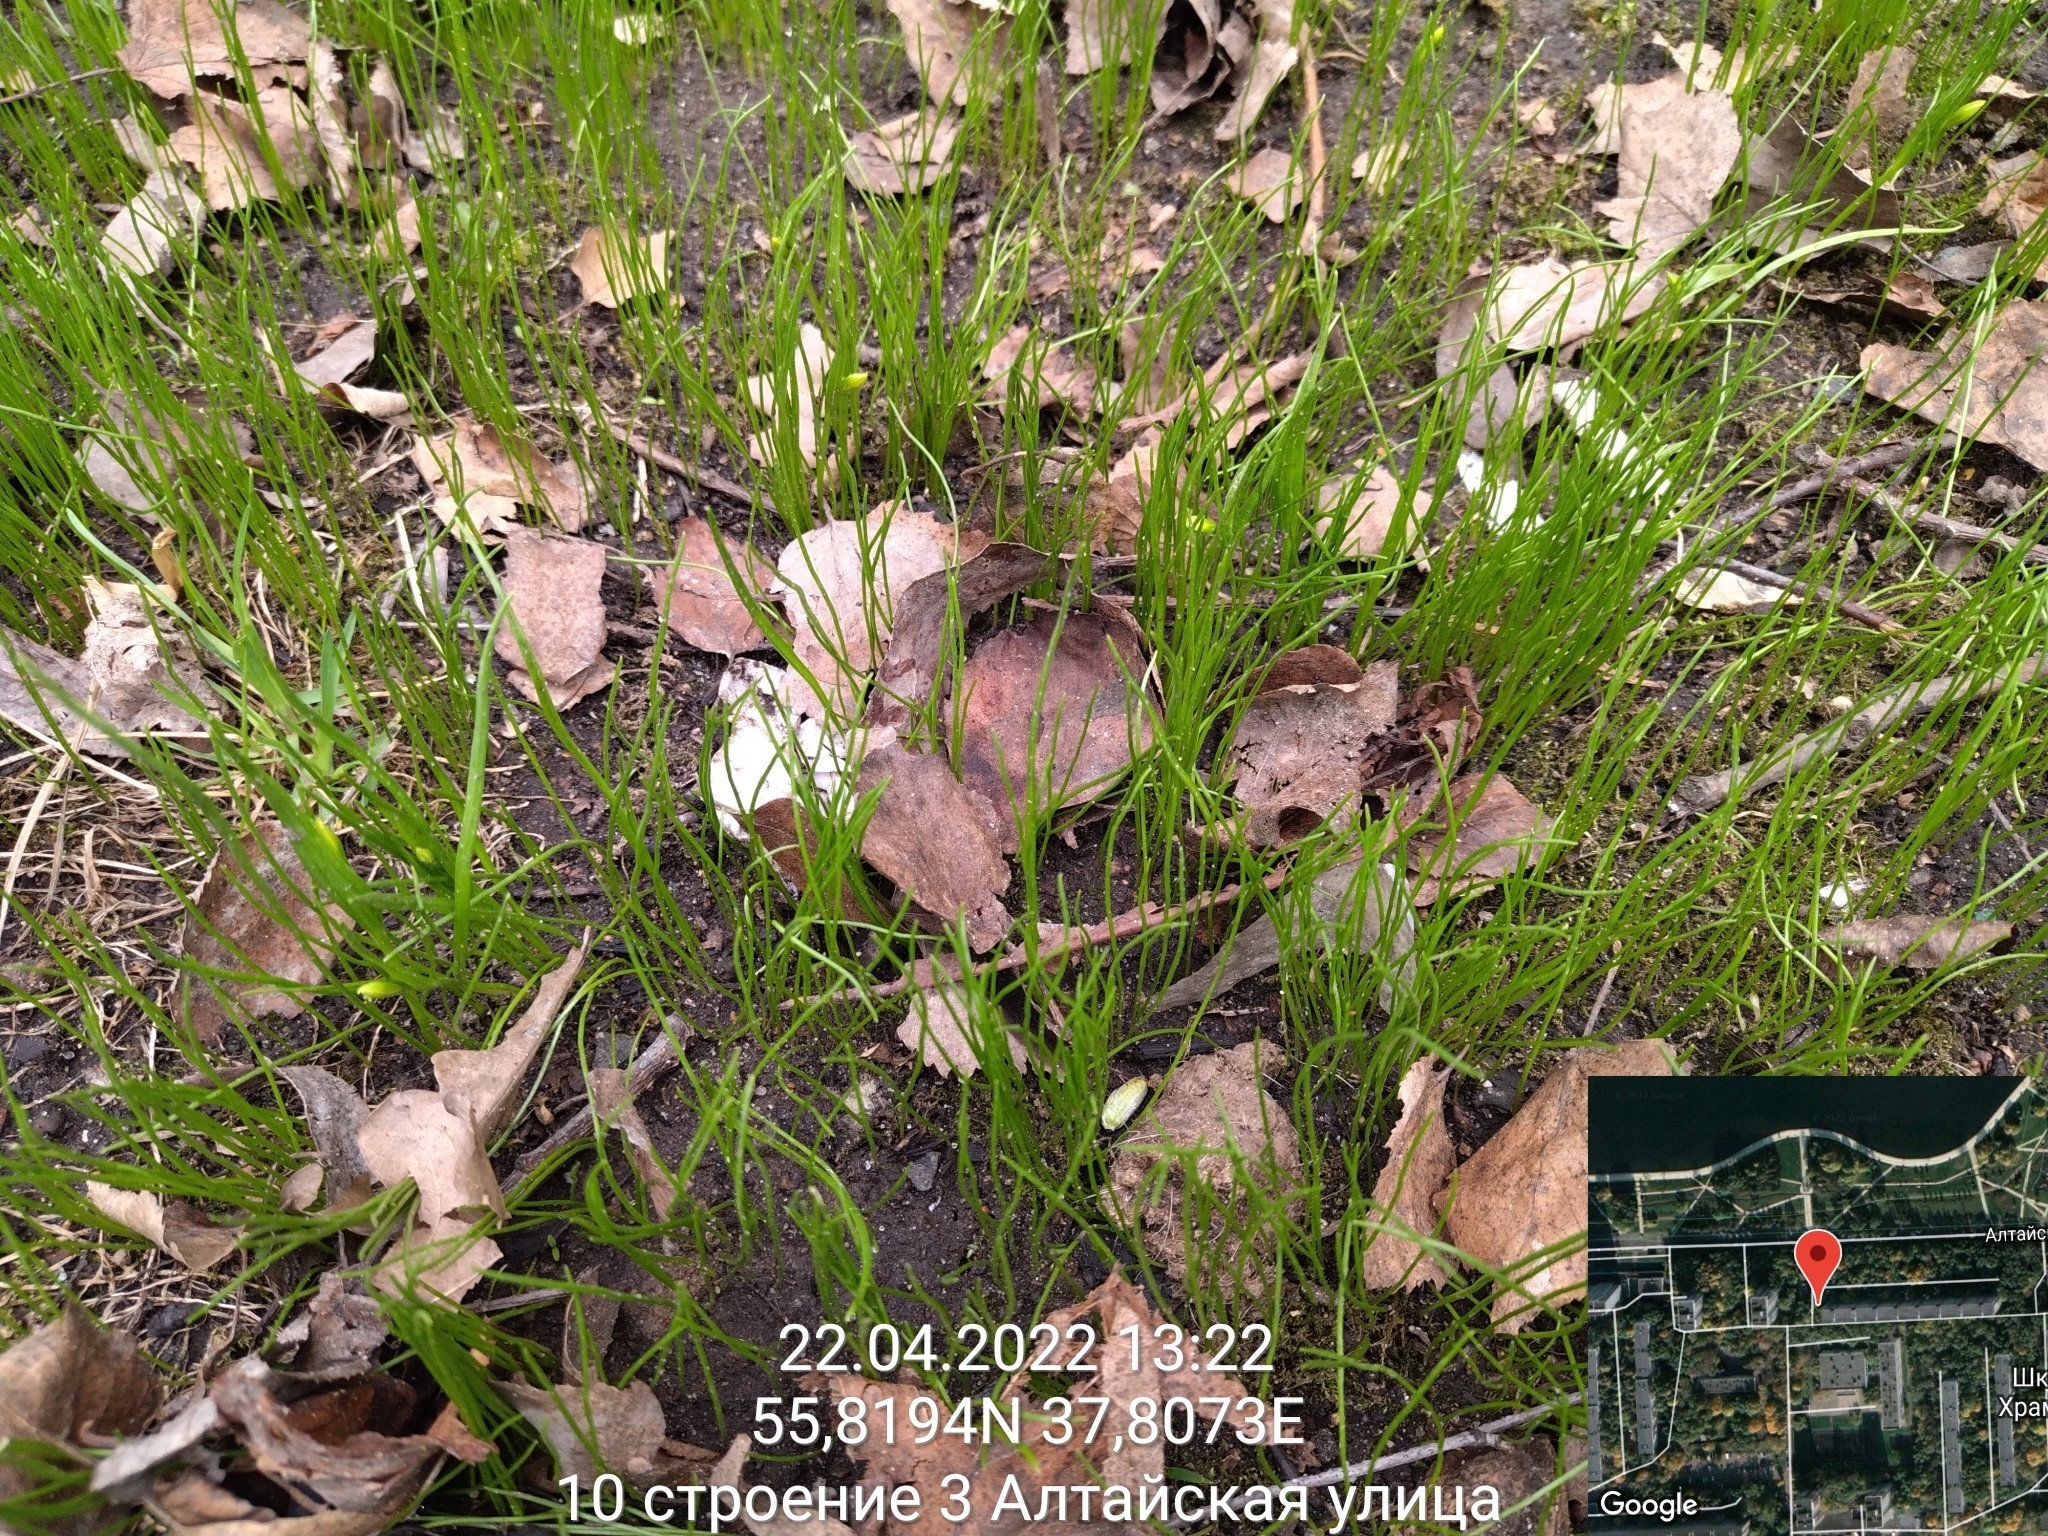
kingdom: Plantae
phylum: Tracheophyta
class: Liliopsida
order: Liliales
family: Liliaceae
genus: Gagea
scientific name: Gagea minima
